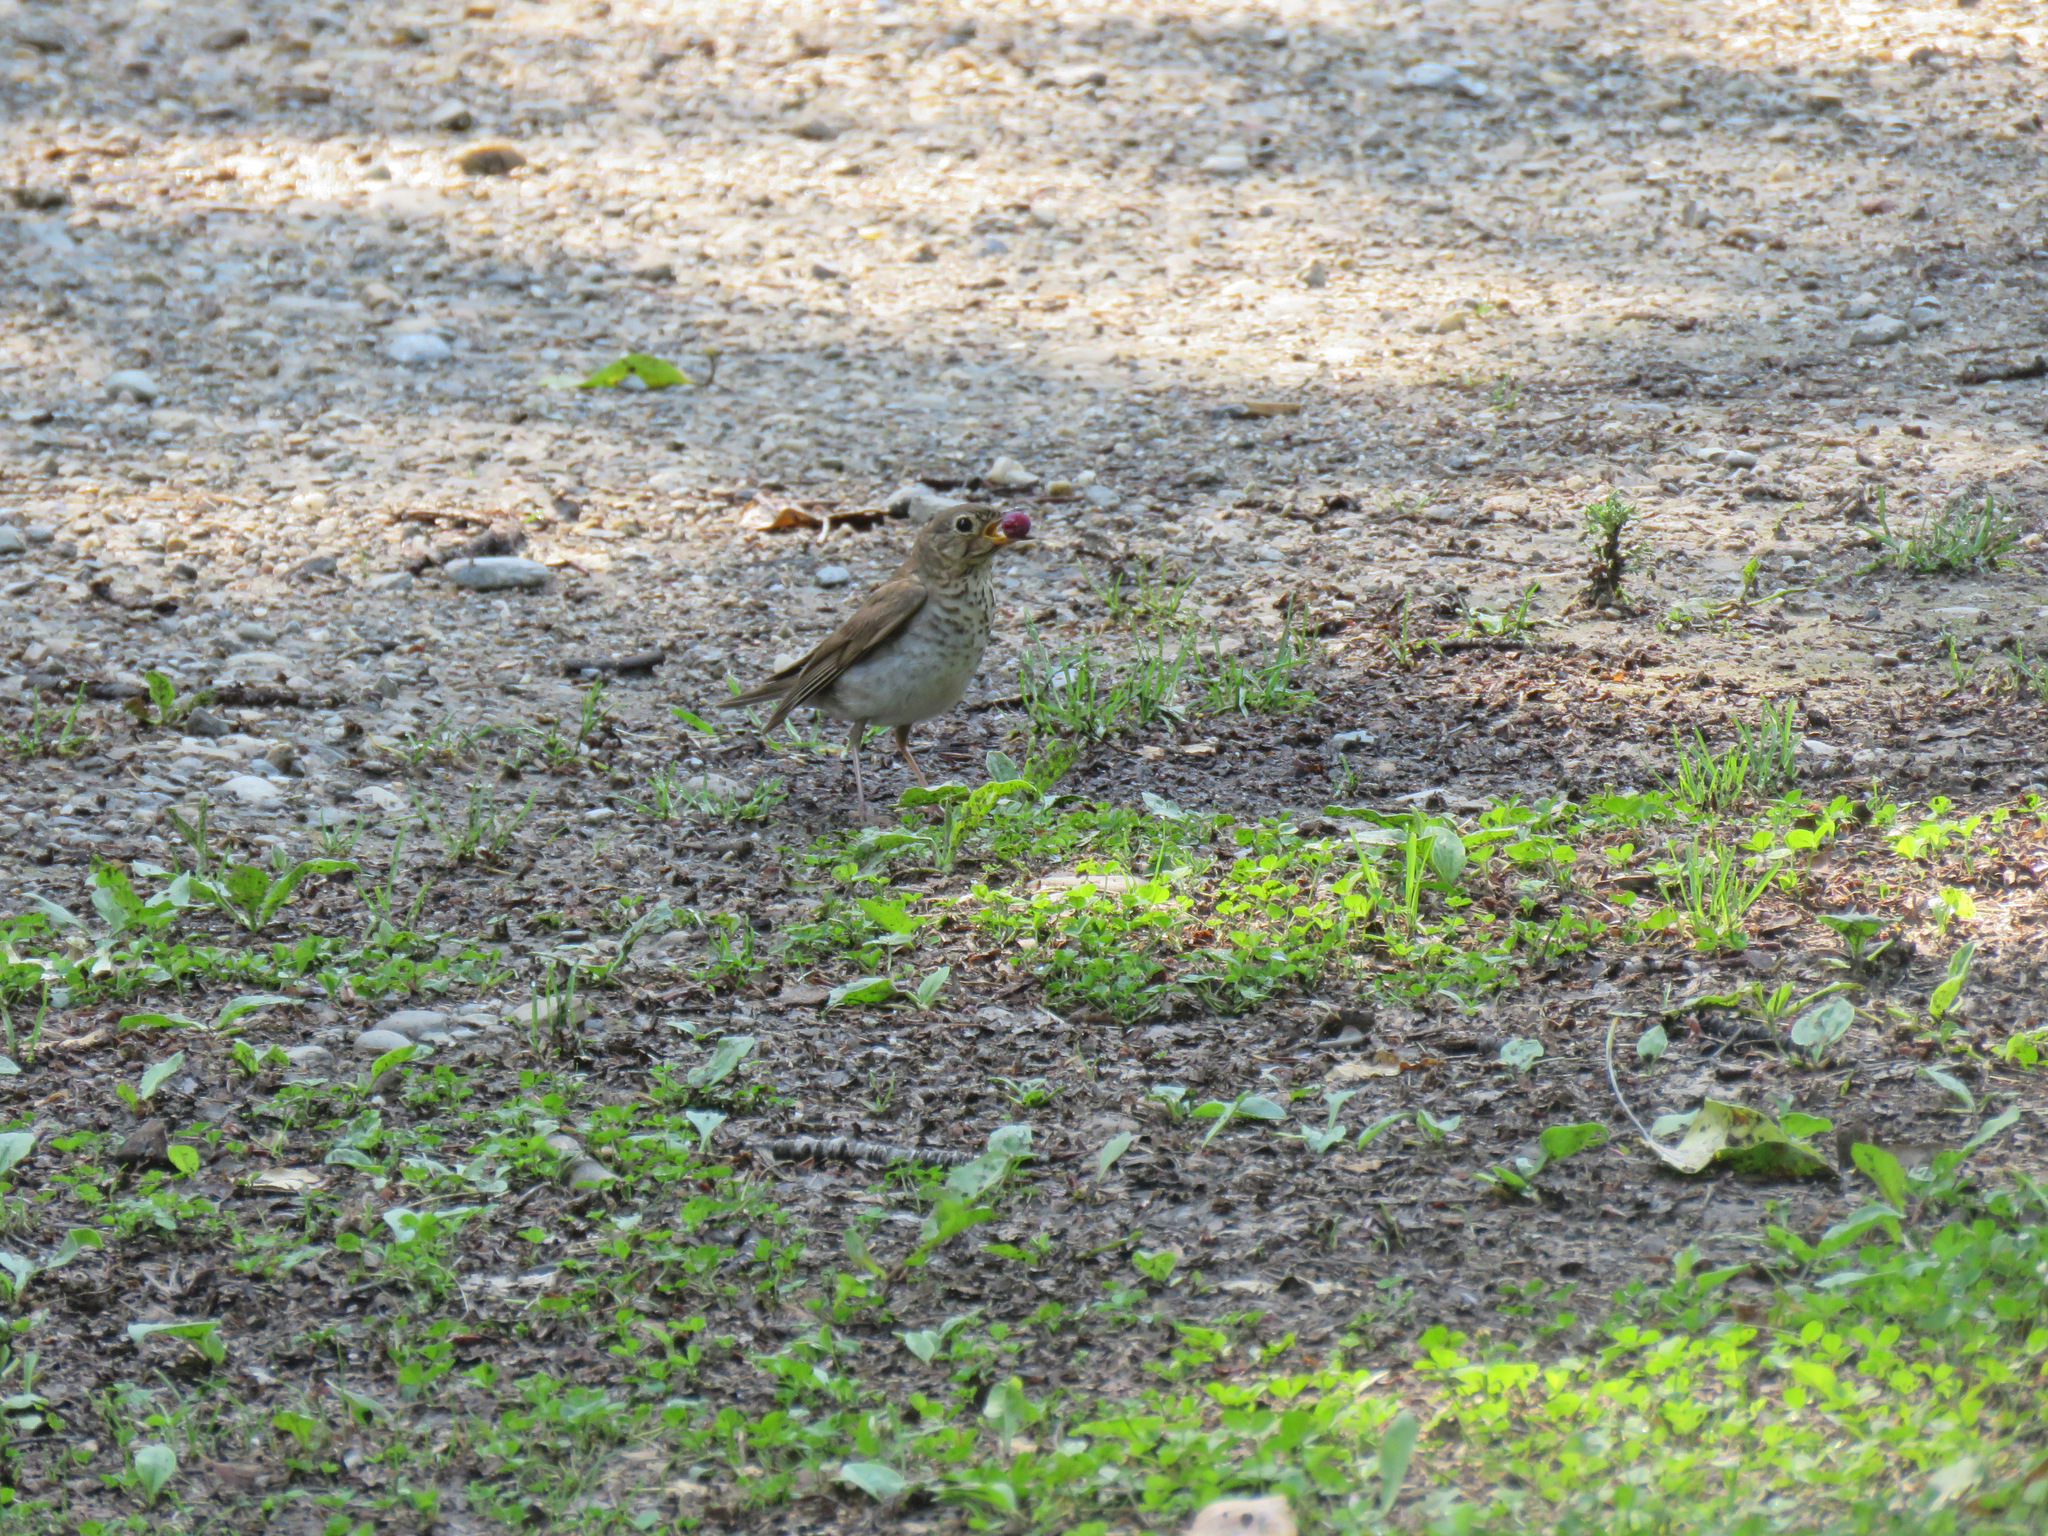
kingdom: Animalia
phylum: Chordata
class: Aves
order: Passeriformes
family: Turdidae
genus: Catharus
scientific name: Catharus ustulatus
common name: Swainson's thrush
